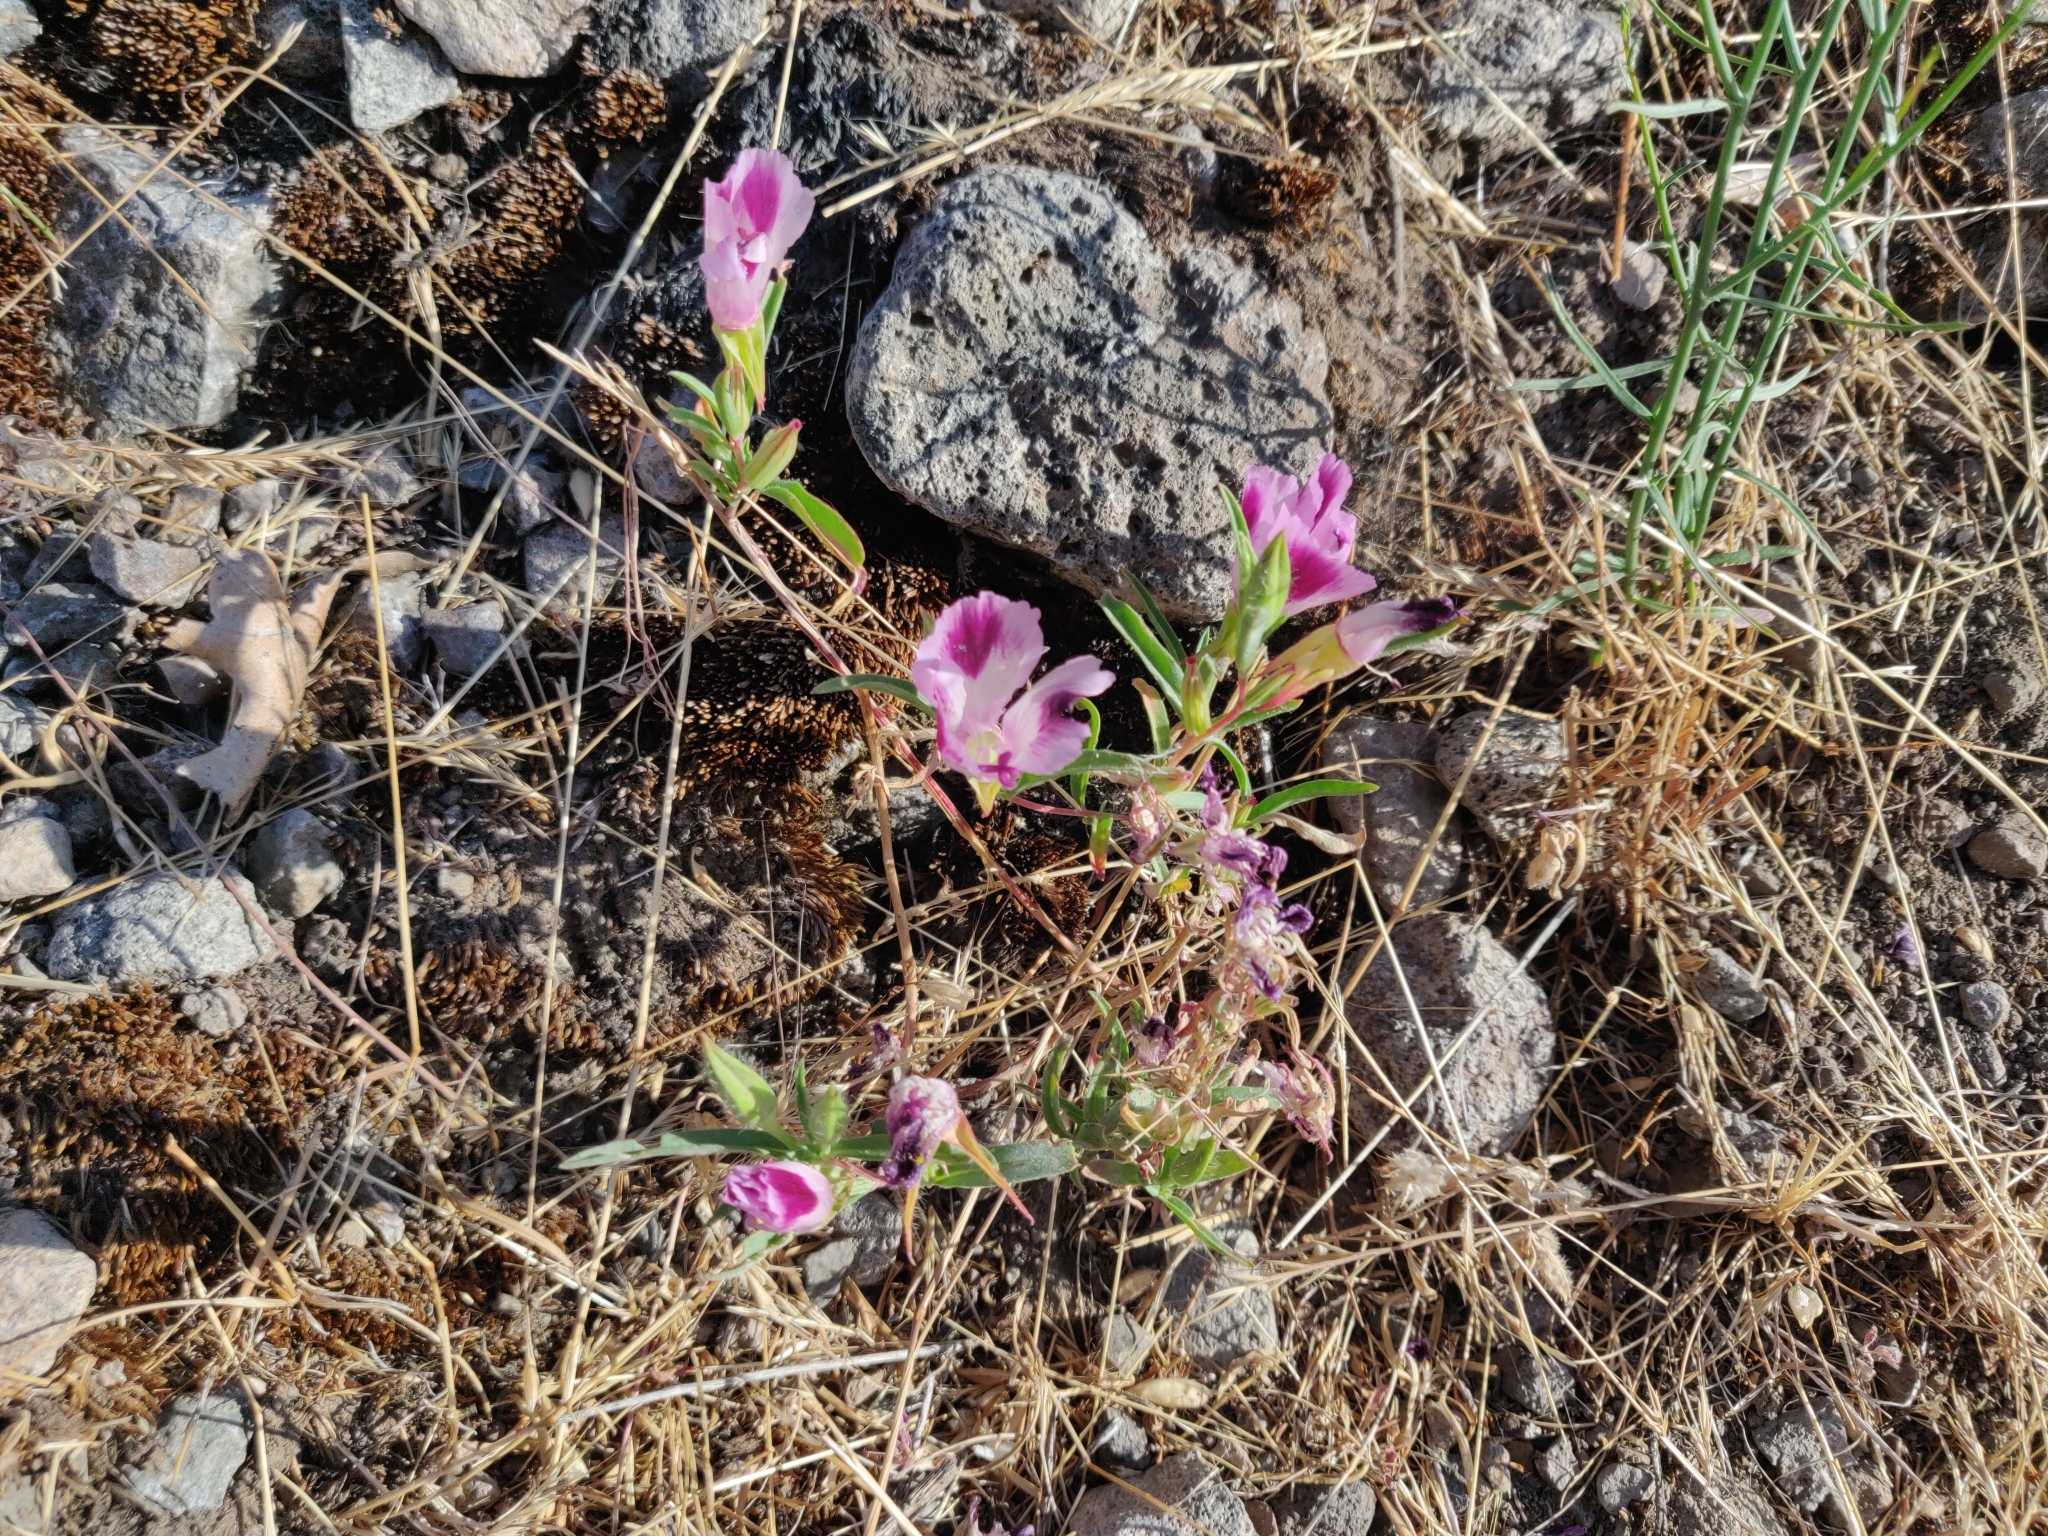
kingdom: Plantae
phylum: Tracheophyta
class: Magnoliopsida
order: Myrtales
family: Onagraceae
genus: Clarkia
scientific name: Clarkia williamsonii
